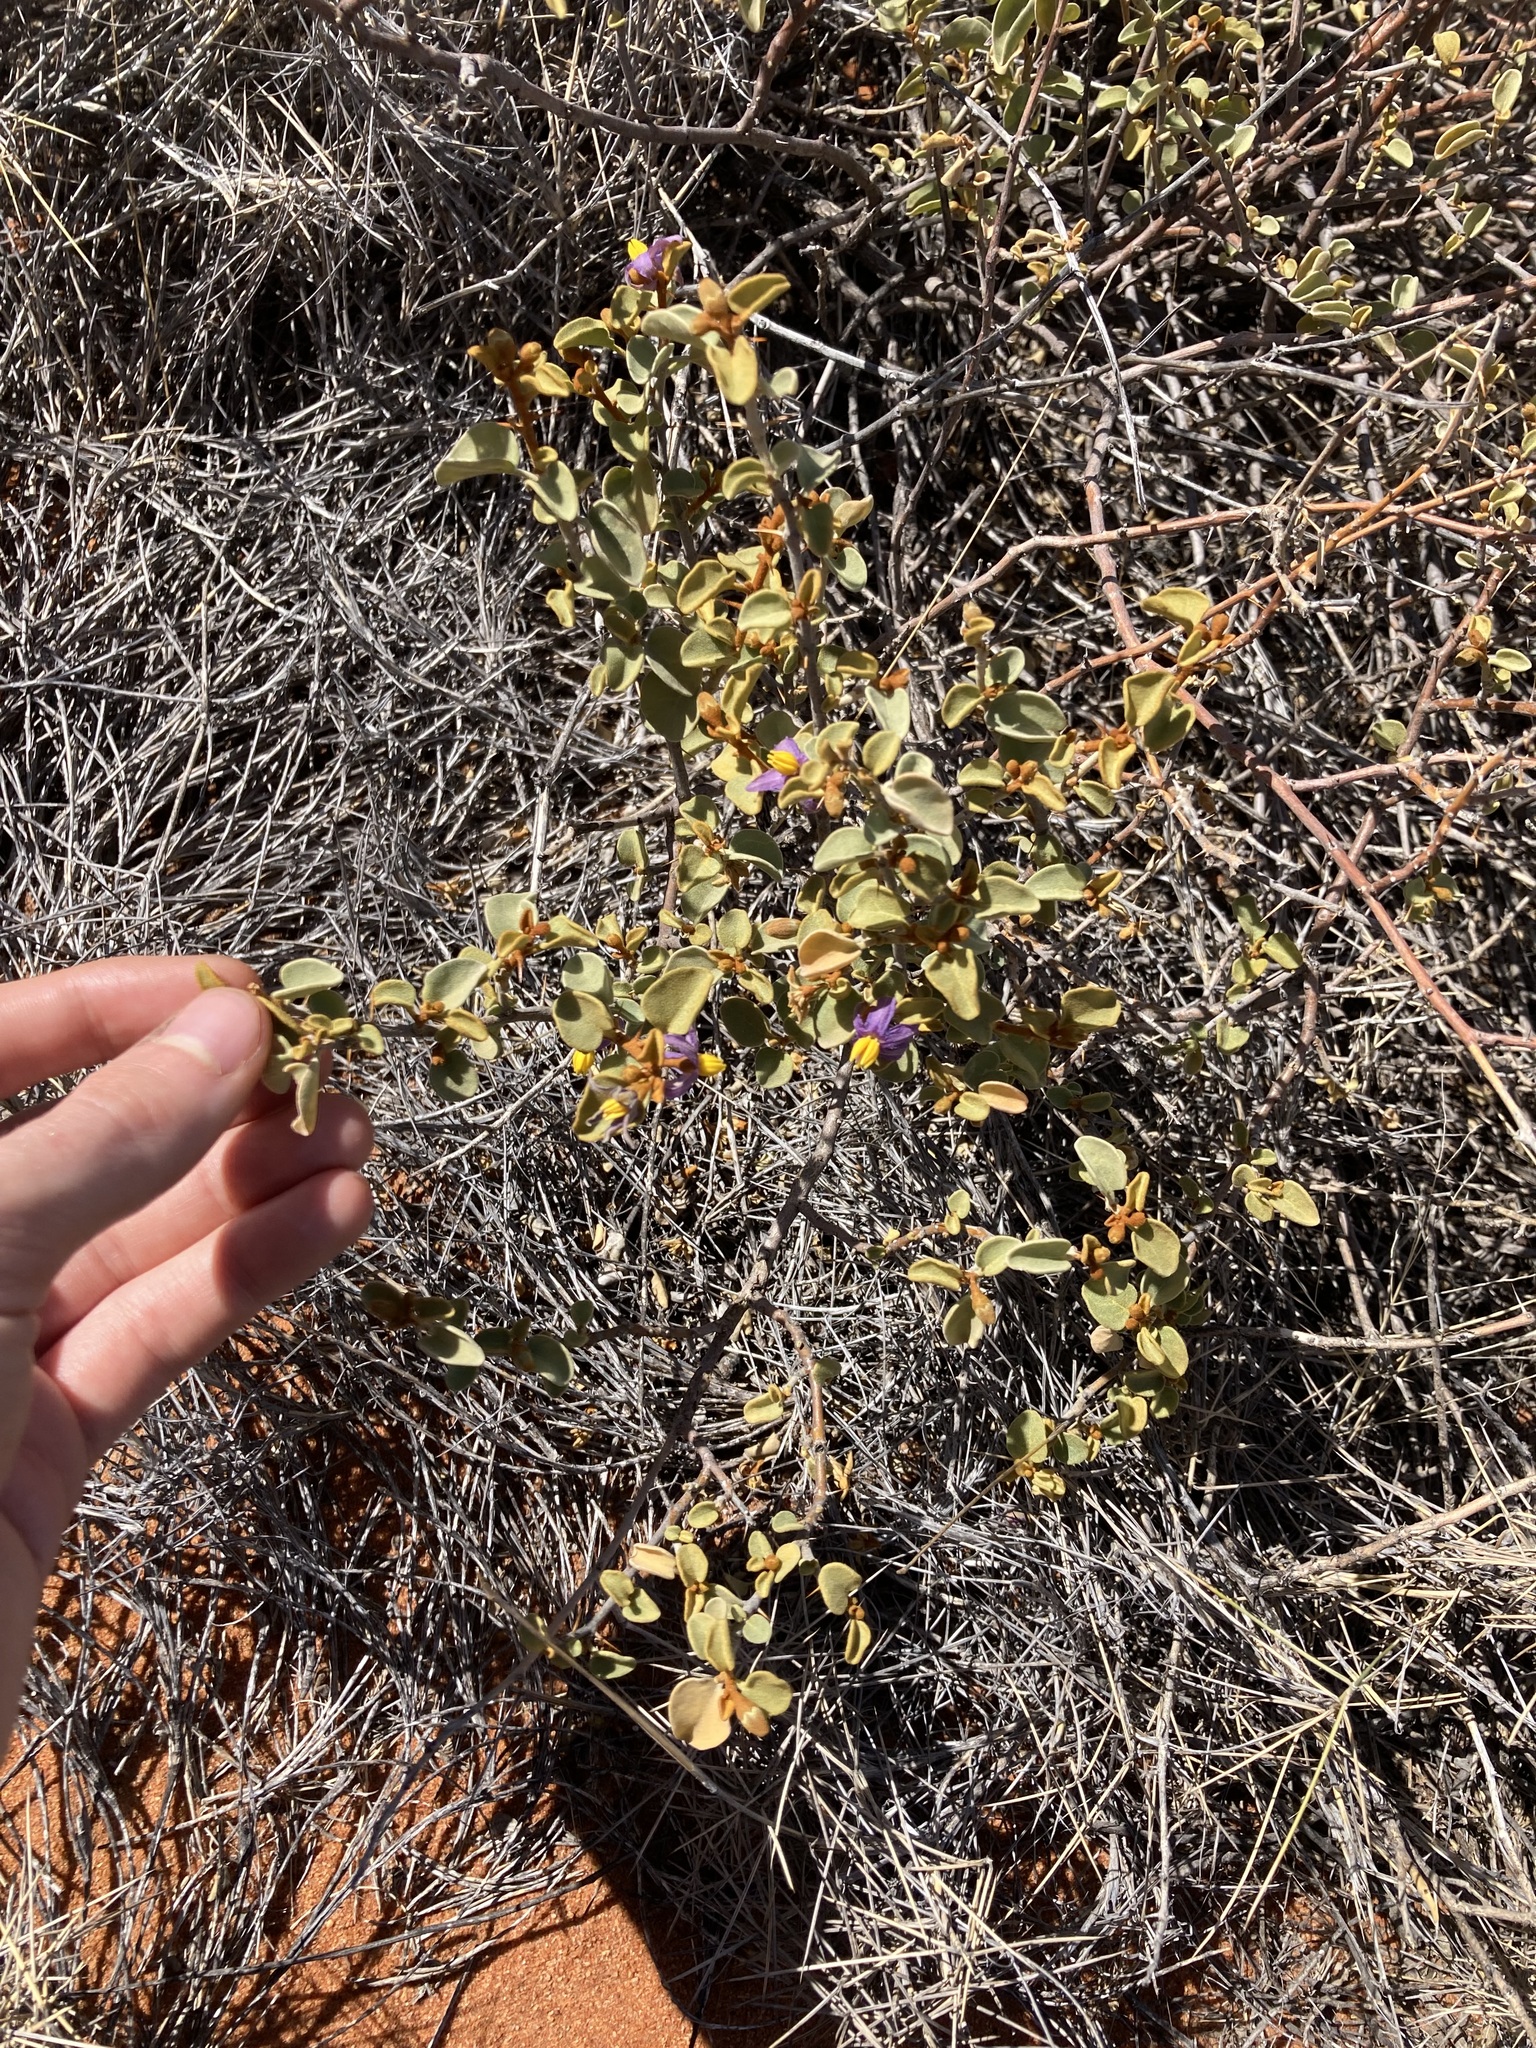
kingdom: Plantae
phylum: Tracheophyta
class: Magnoliopsida
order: Solanales
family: Solanaceae
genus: Solanum
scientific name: Solanum orbiculatum
